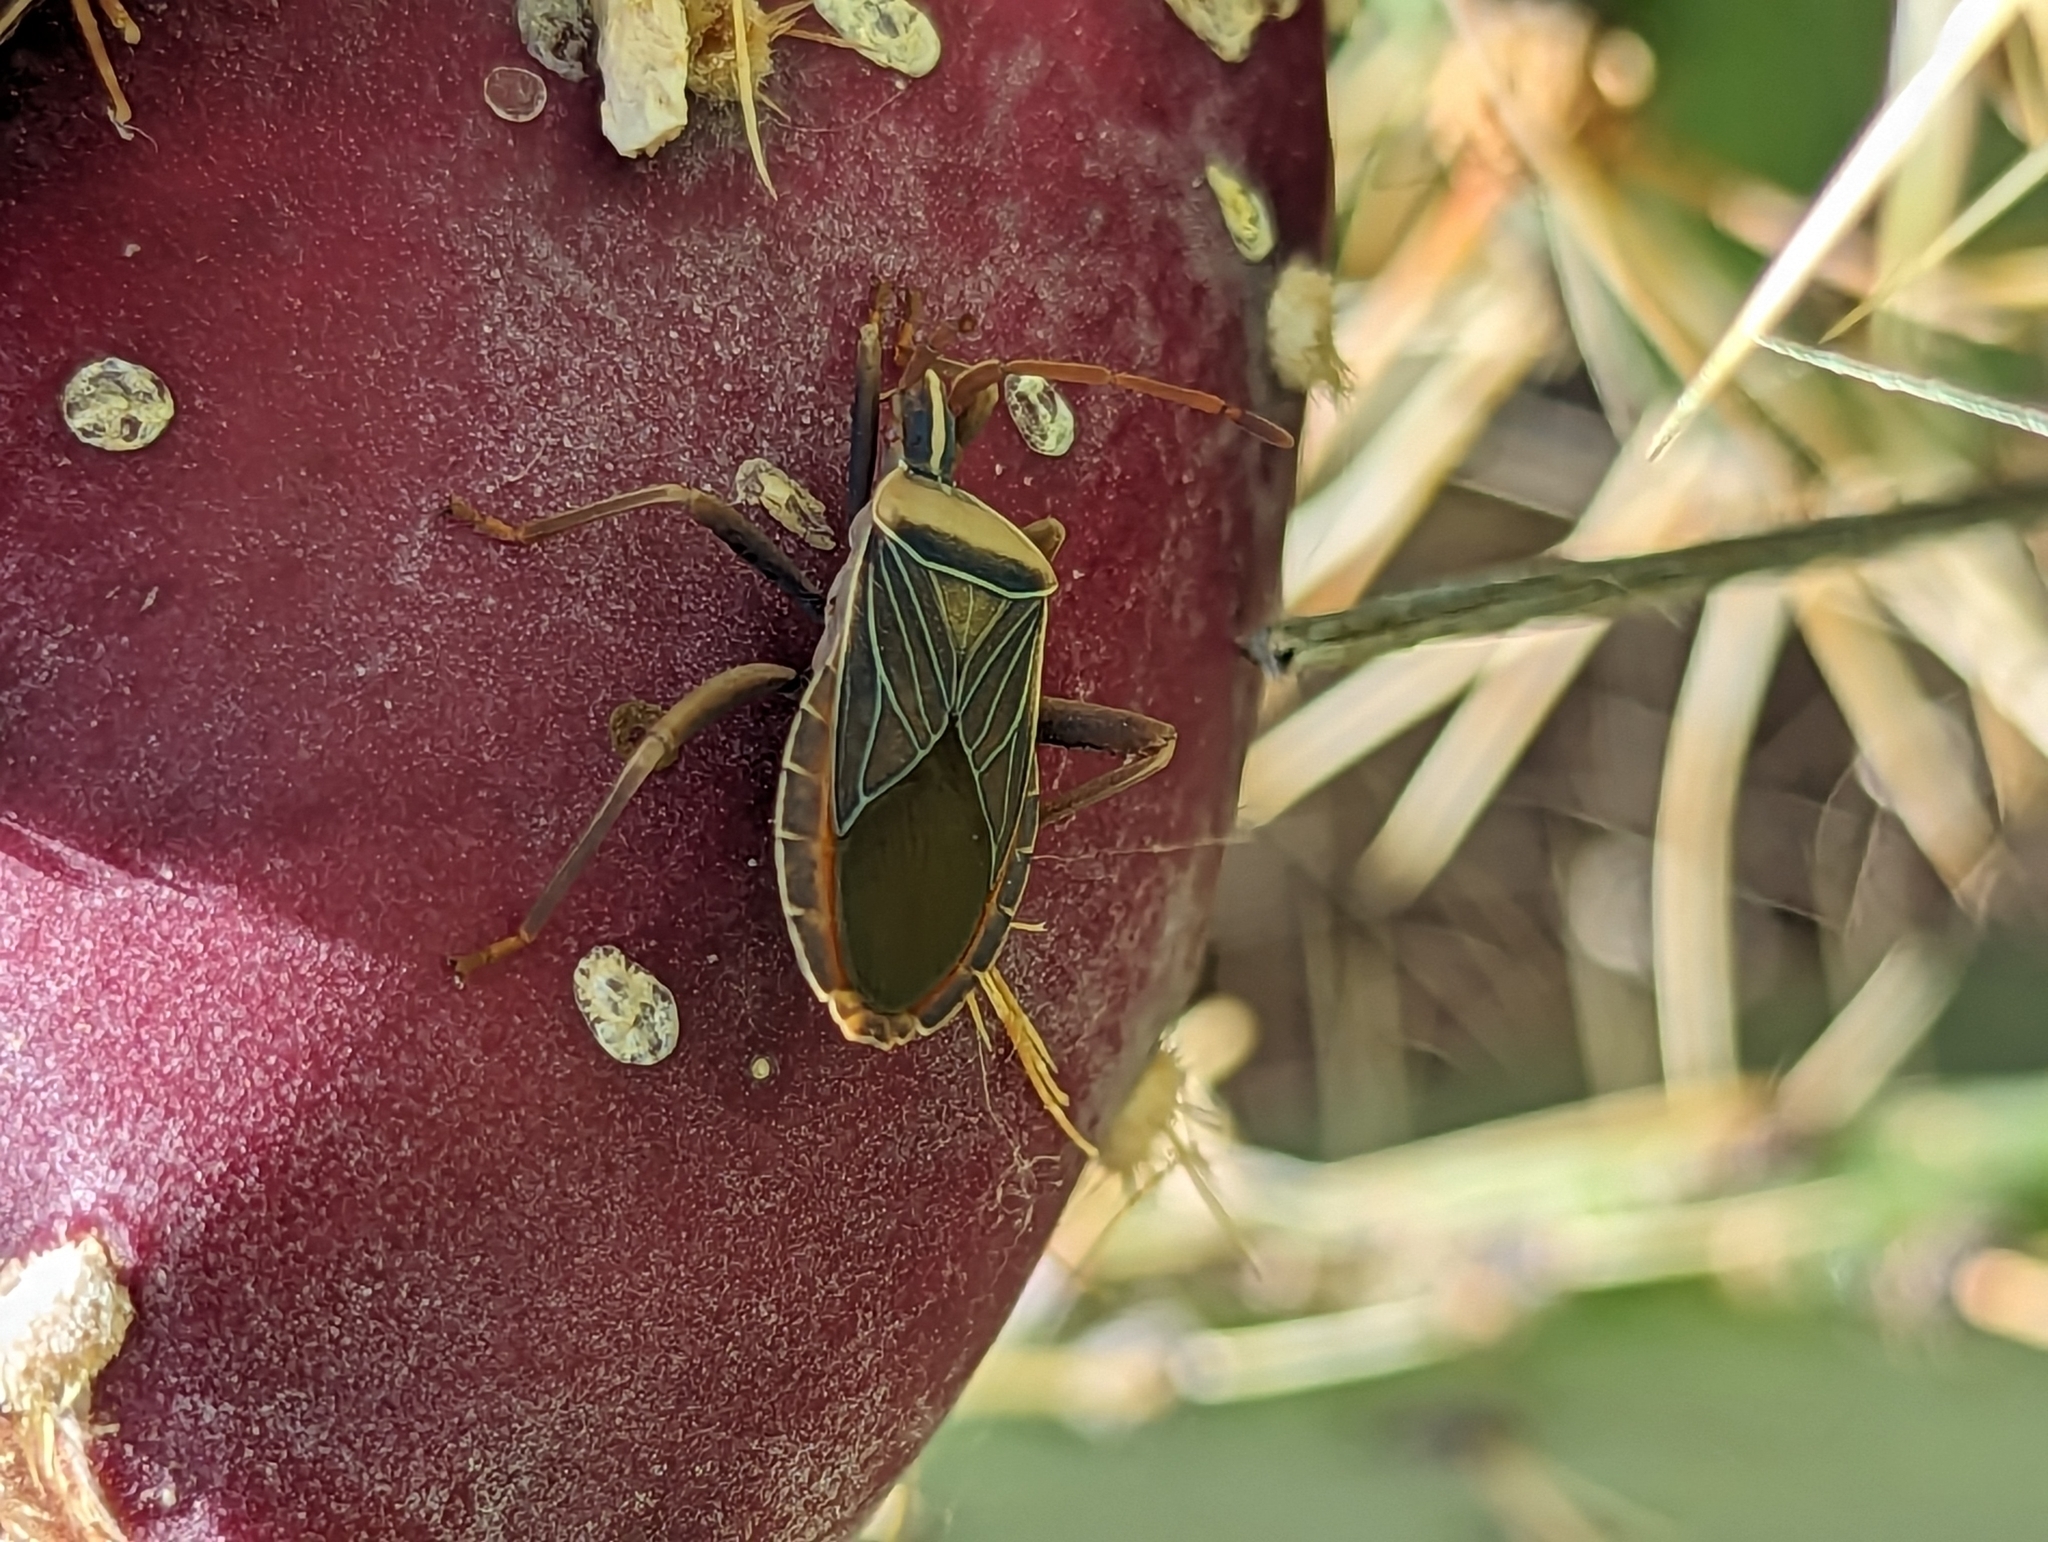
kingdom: Animalia
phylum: Arthropoda
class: Insecta
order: Hemiptera
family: Coreidae
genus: Chelinidea
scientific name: Chelinidea vittiger
